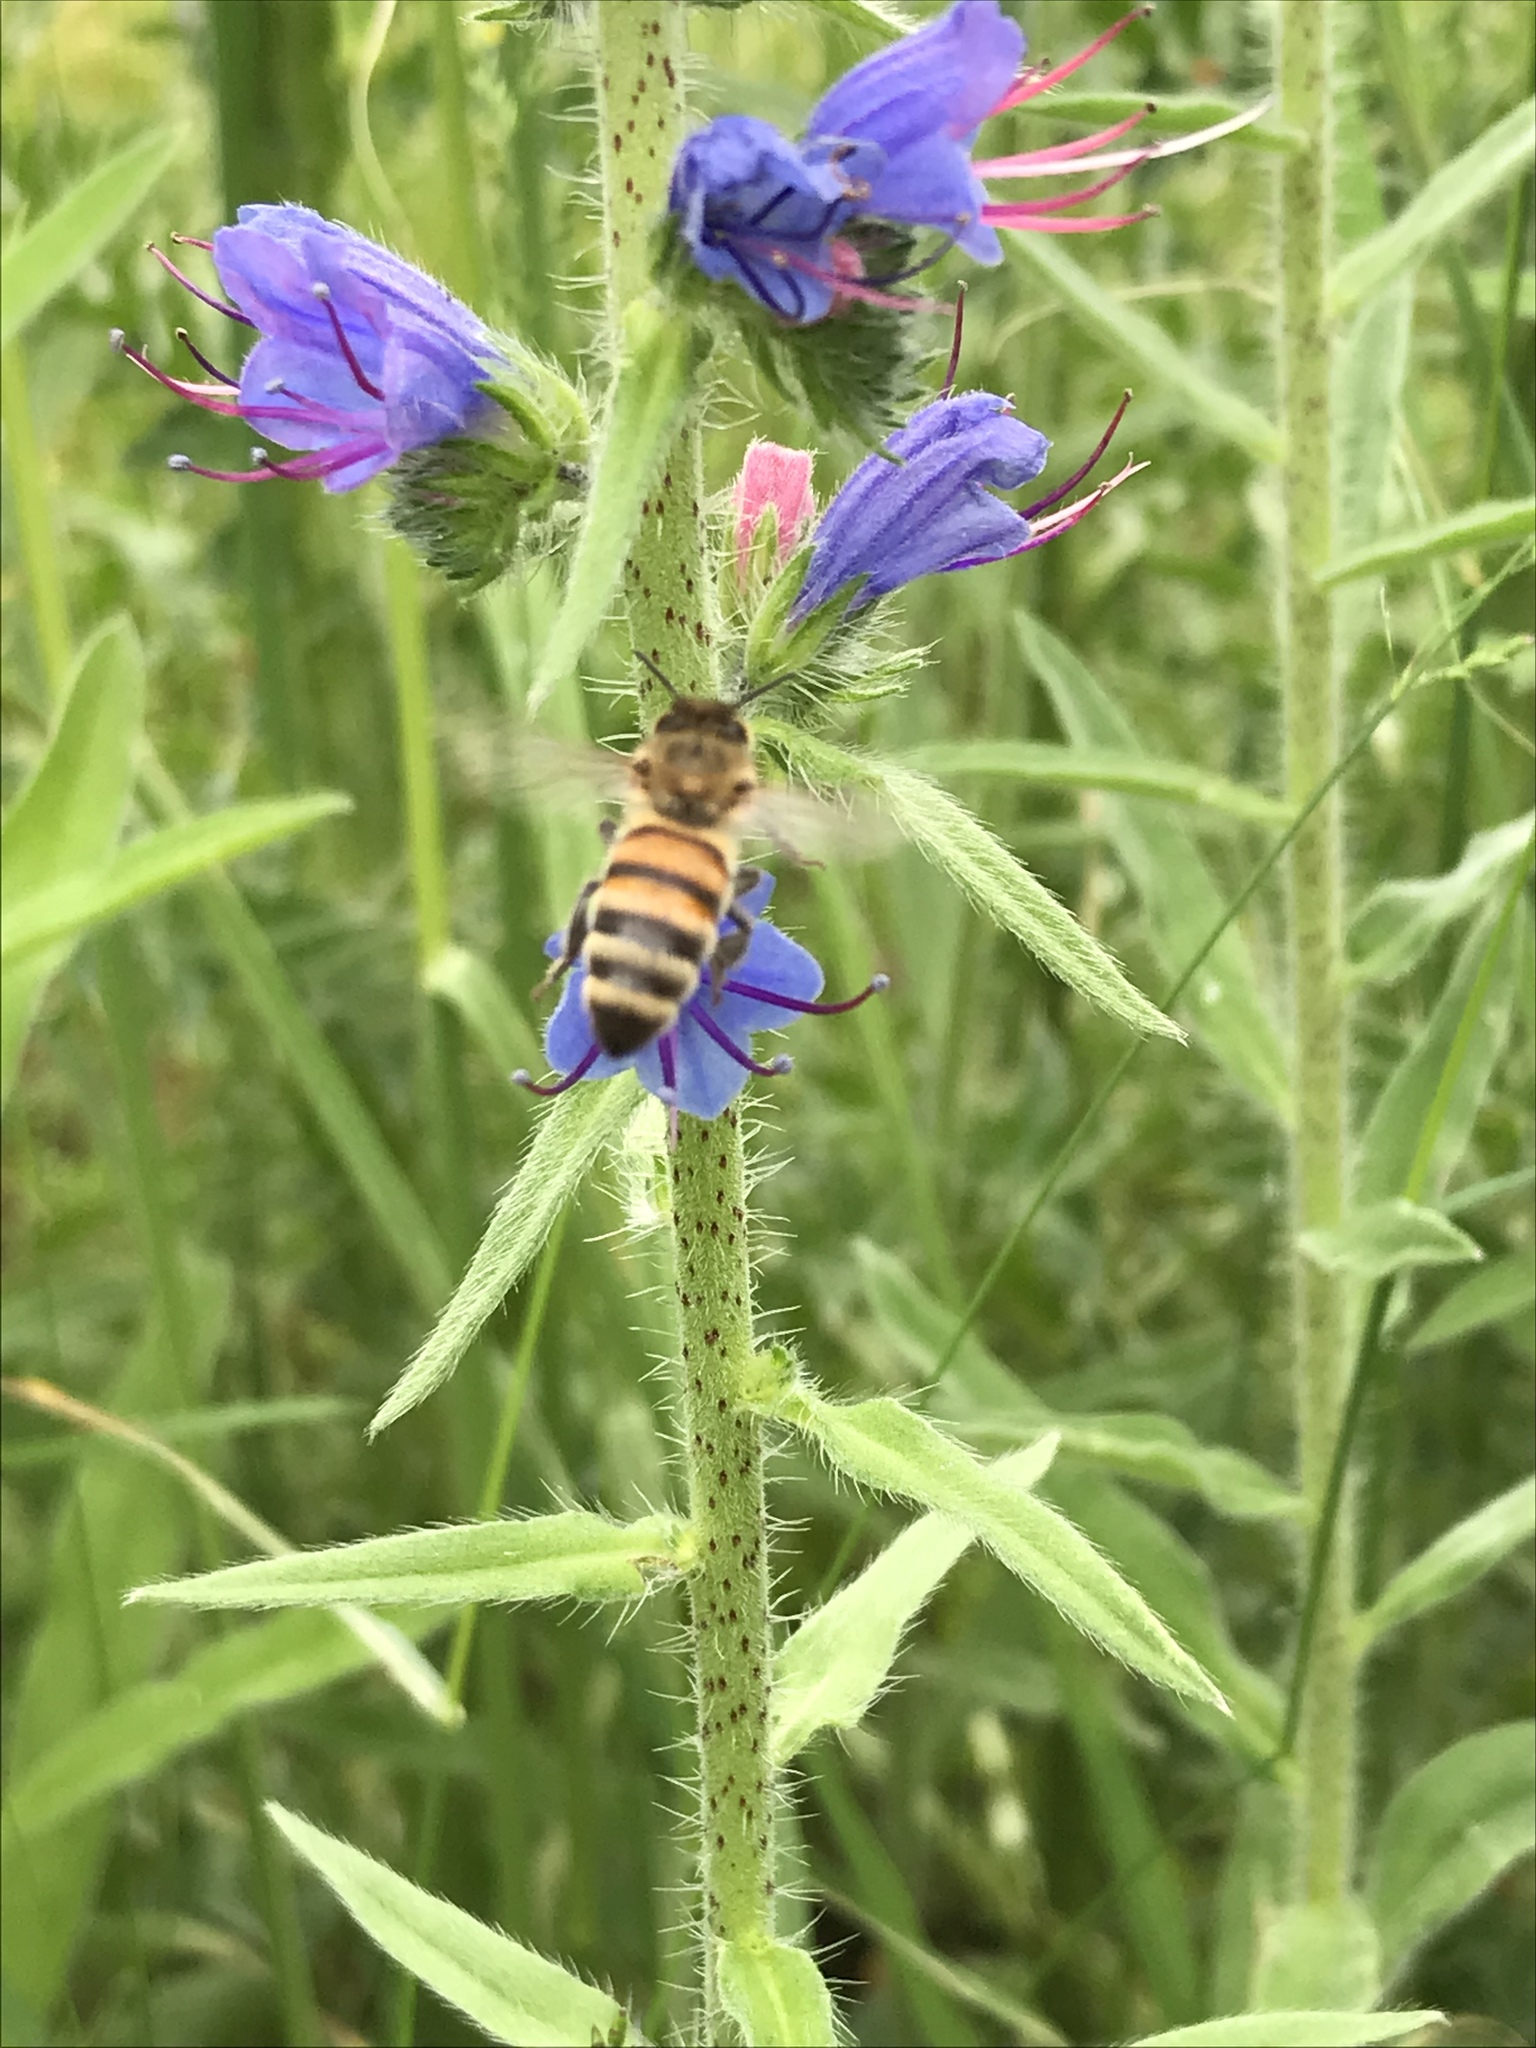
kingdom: Animalia
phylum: Arthropoda
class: Insecta
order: Hymenoptera
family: Apidae
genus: Apis
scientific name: Apis mellifera
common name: Honey bee
